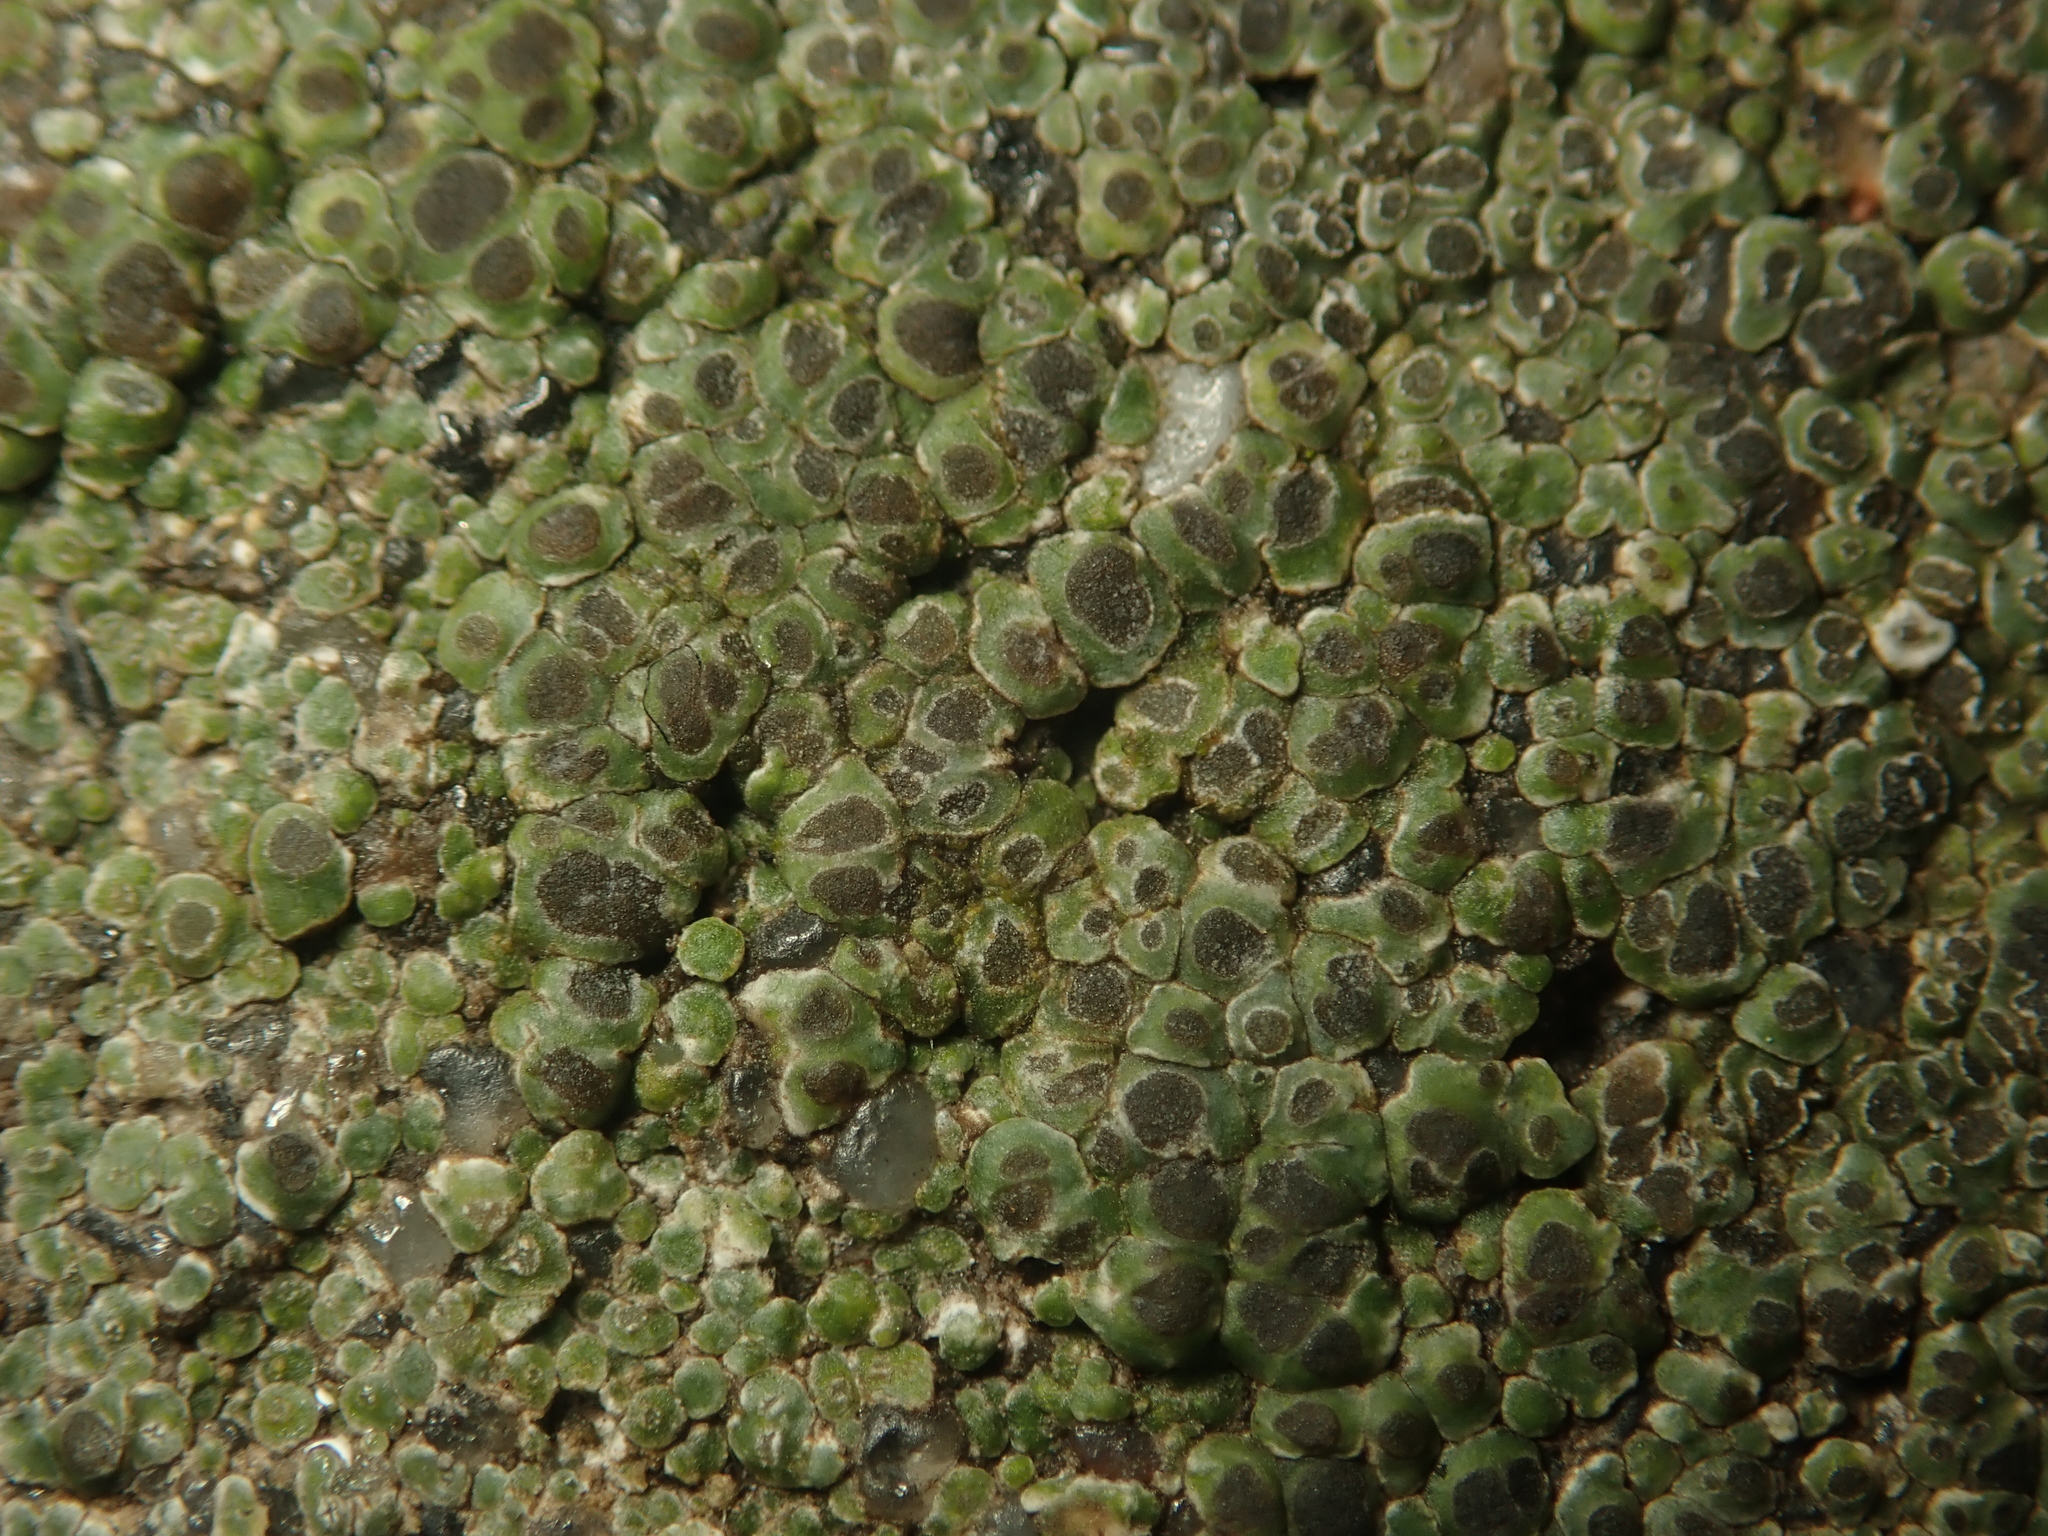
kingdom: Fungi
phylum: Ascomycota
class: Lecanoromycetes
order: Pertusariales
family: Megasporaceae
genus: Circinaria
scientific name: Circinaria contorta
